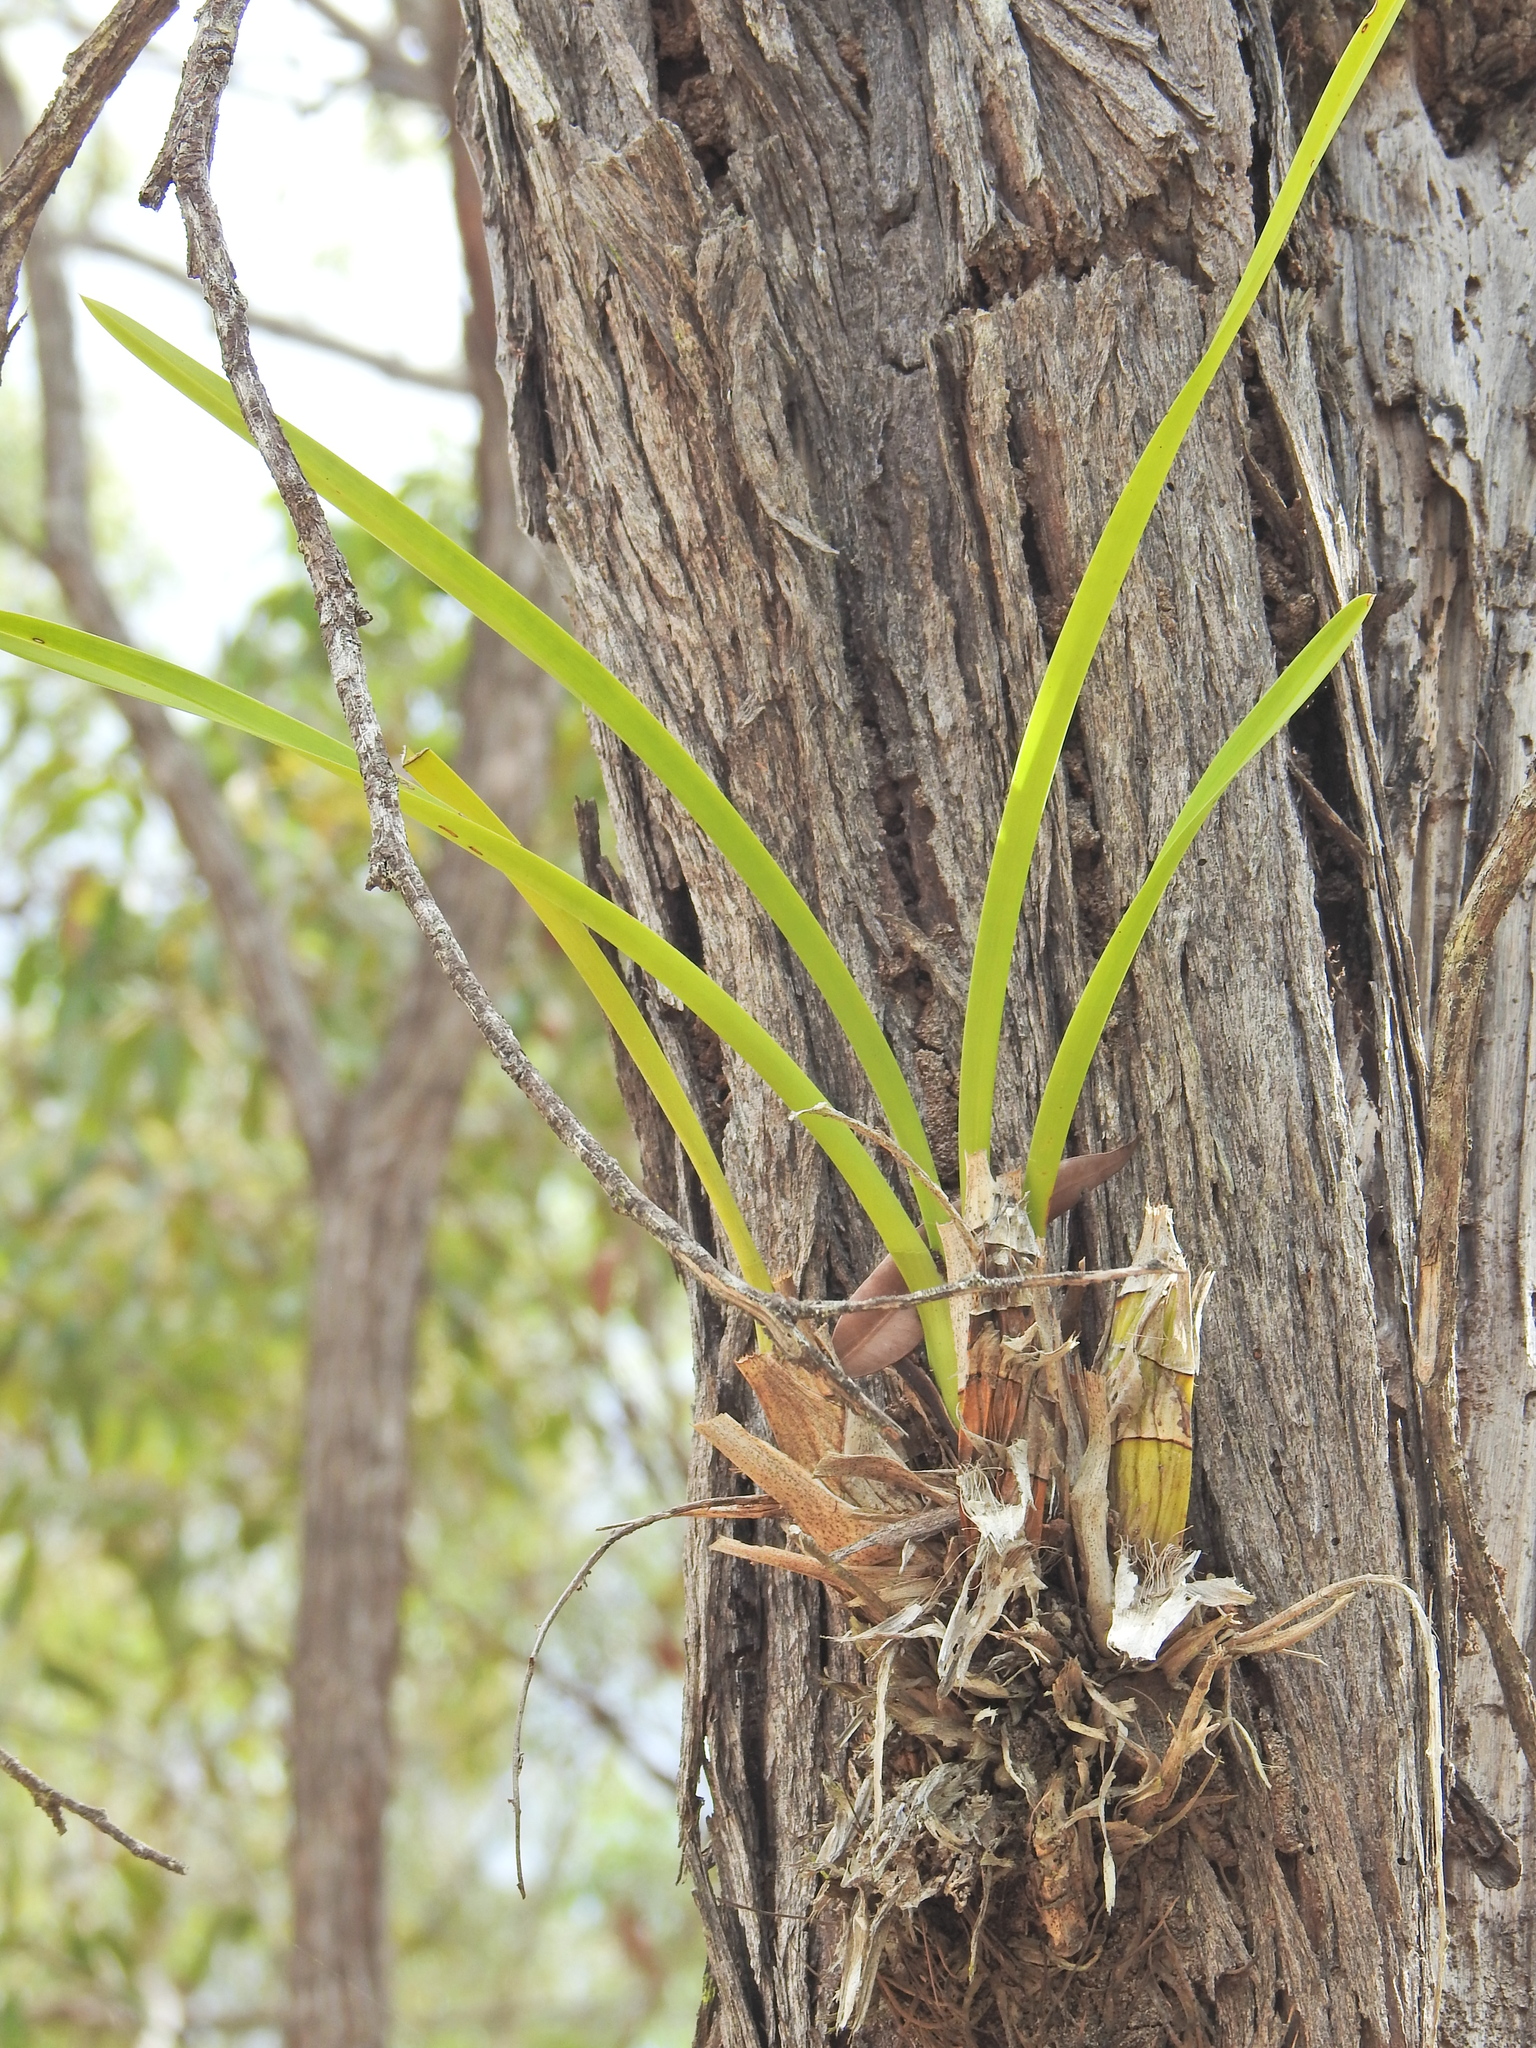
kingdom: Plantae
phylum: Tracheophyta
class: Liliopsida
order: Asparagales
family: Orchidaceae
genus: Cymbidium
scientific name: Cymbidium madidum
